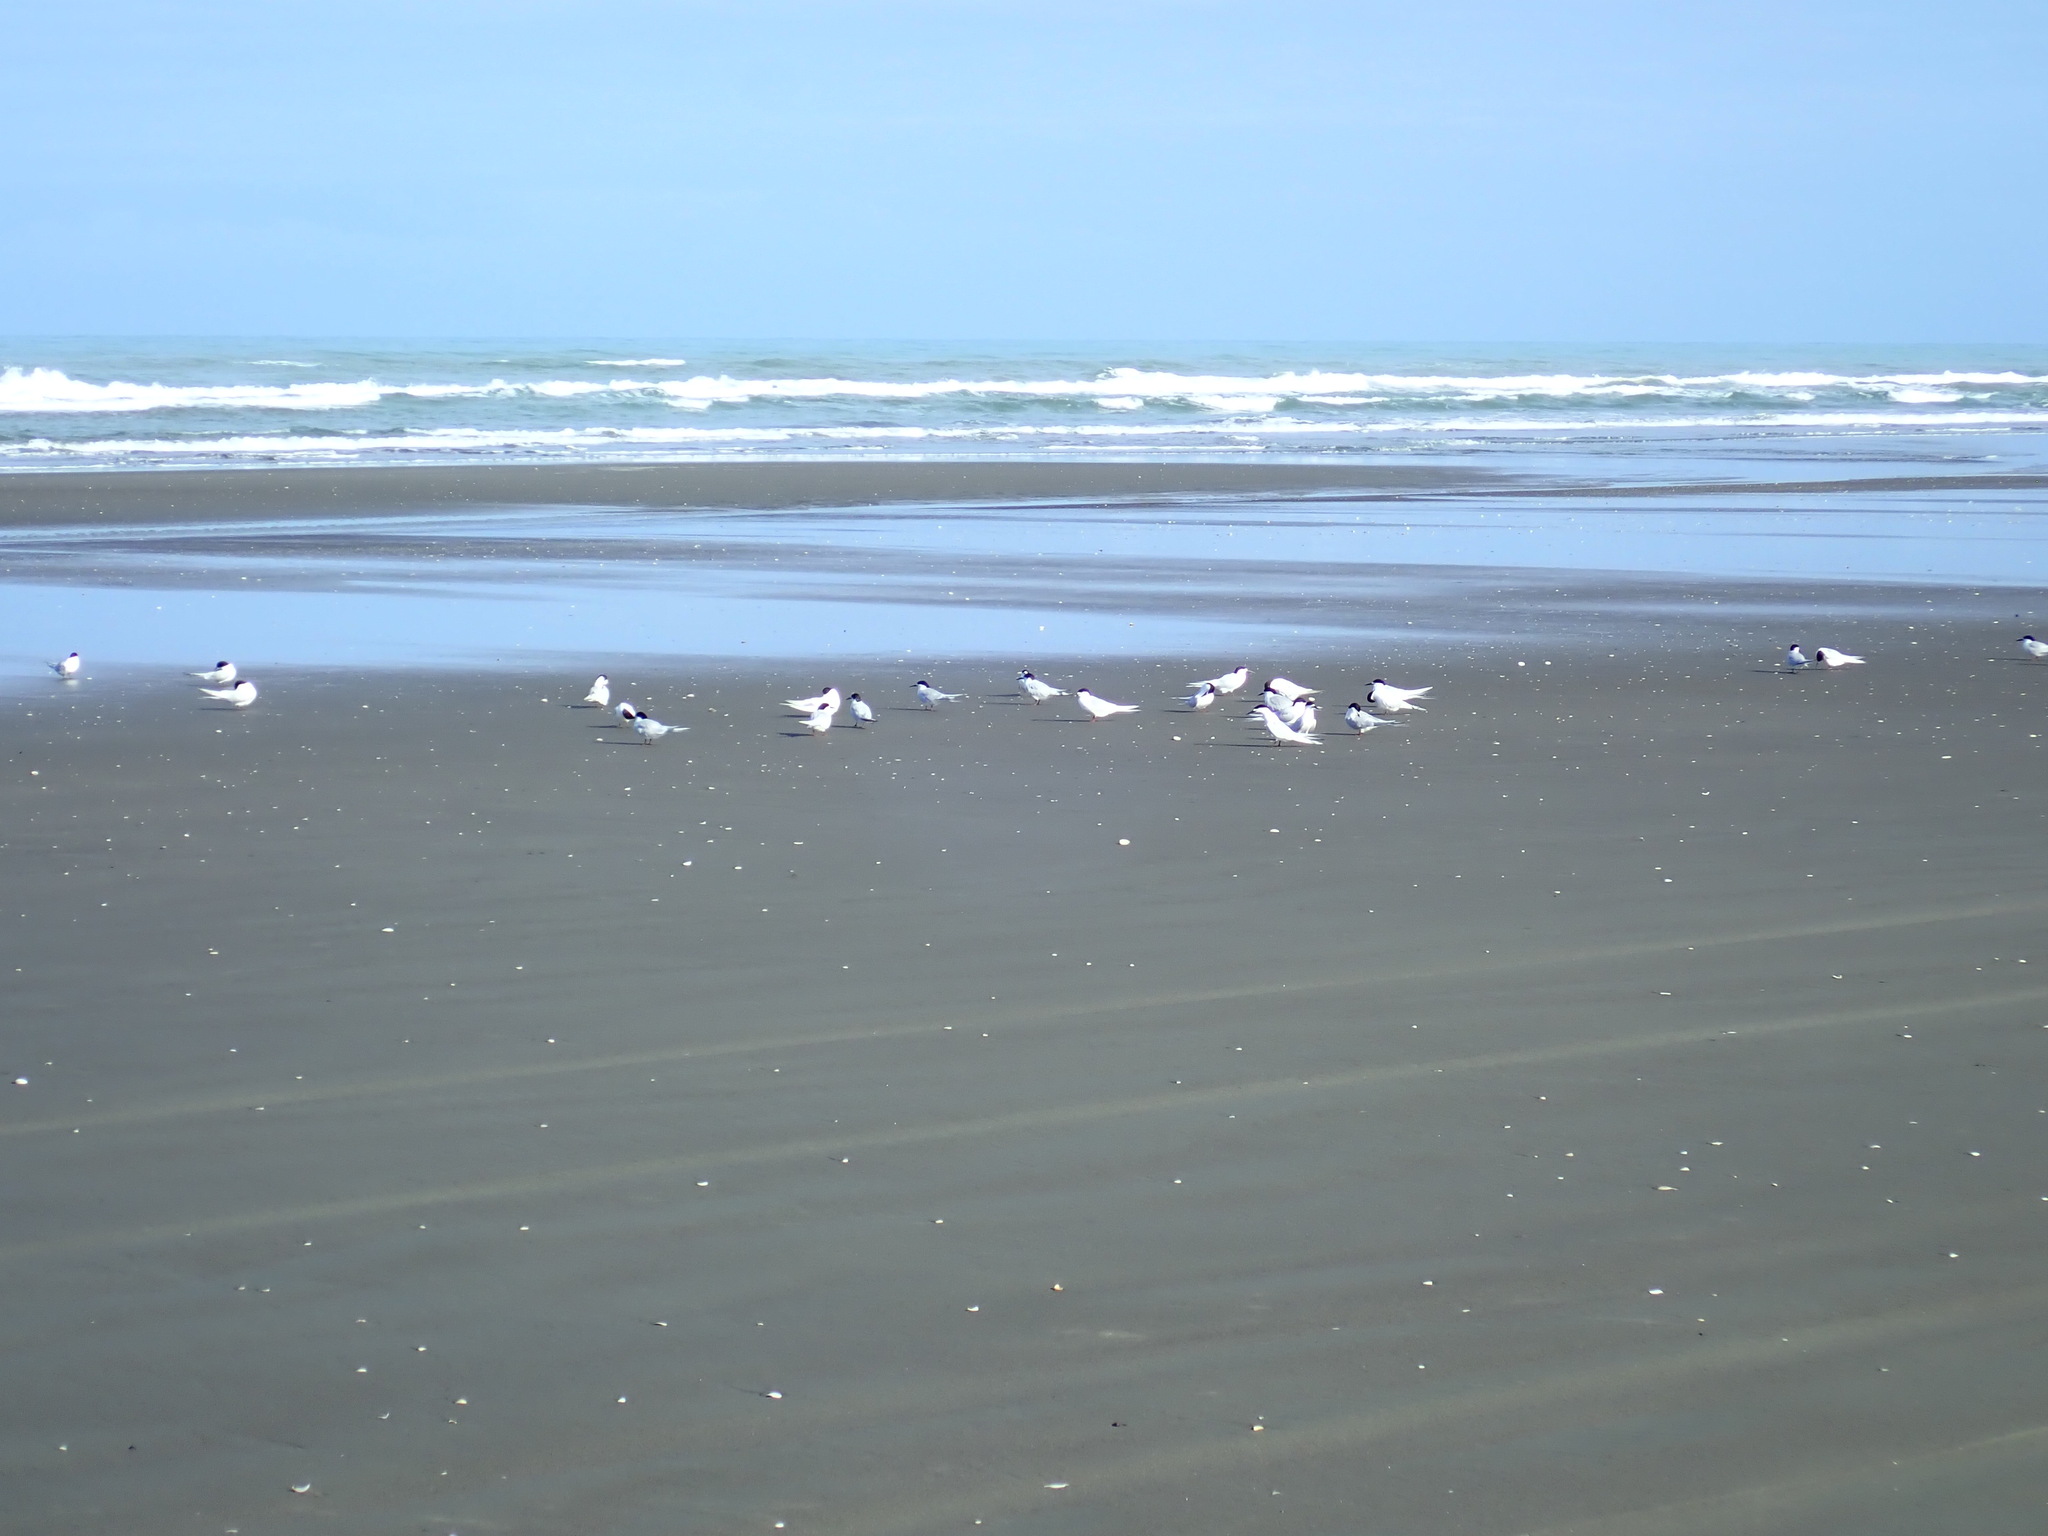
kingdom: Animalia
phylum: Chordata
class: Aves
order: Charadriiformes
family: Laridae
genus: Sterna
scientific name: Sterna striata
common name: White-fronted tern
